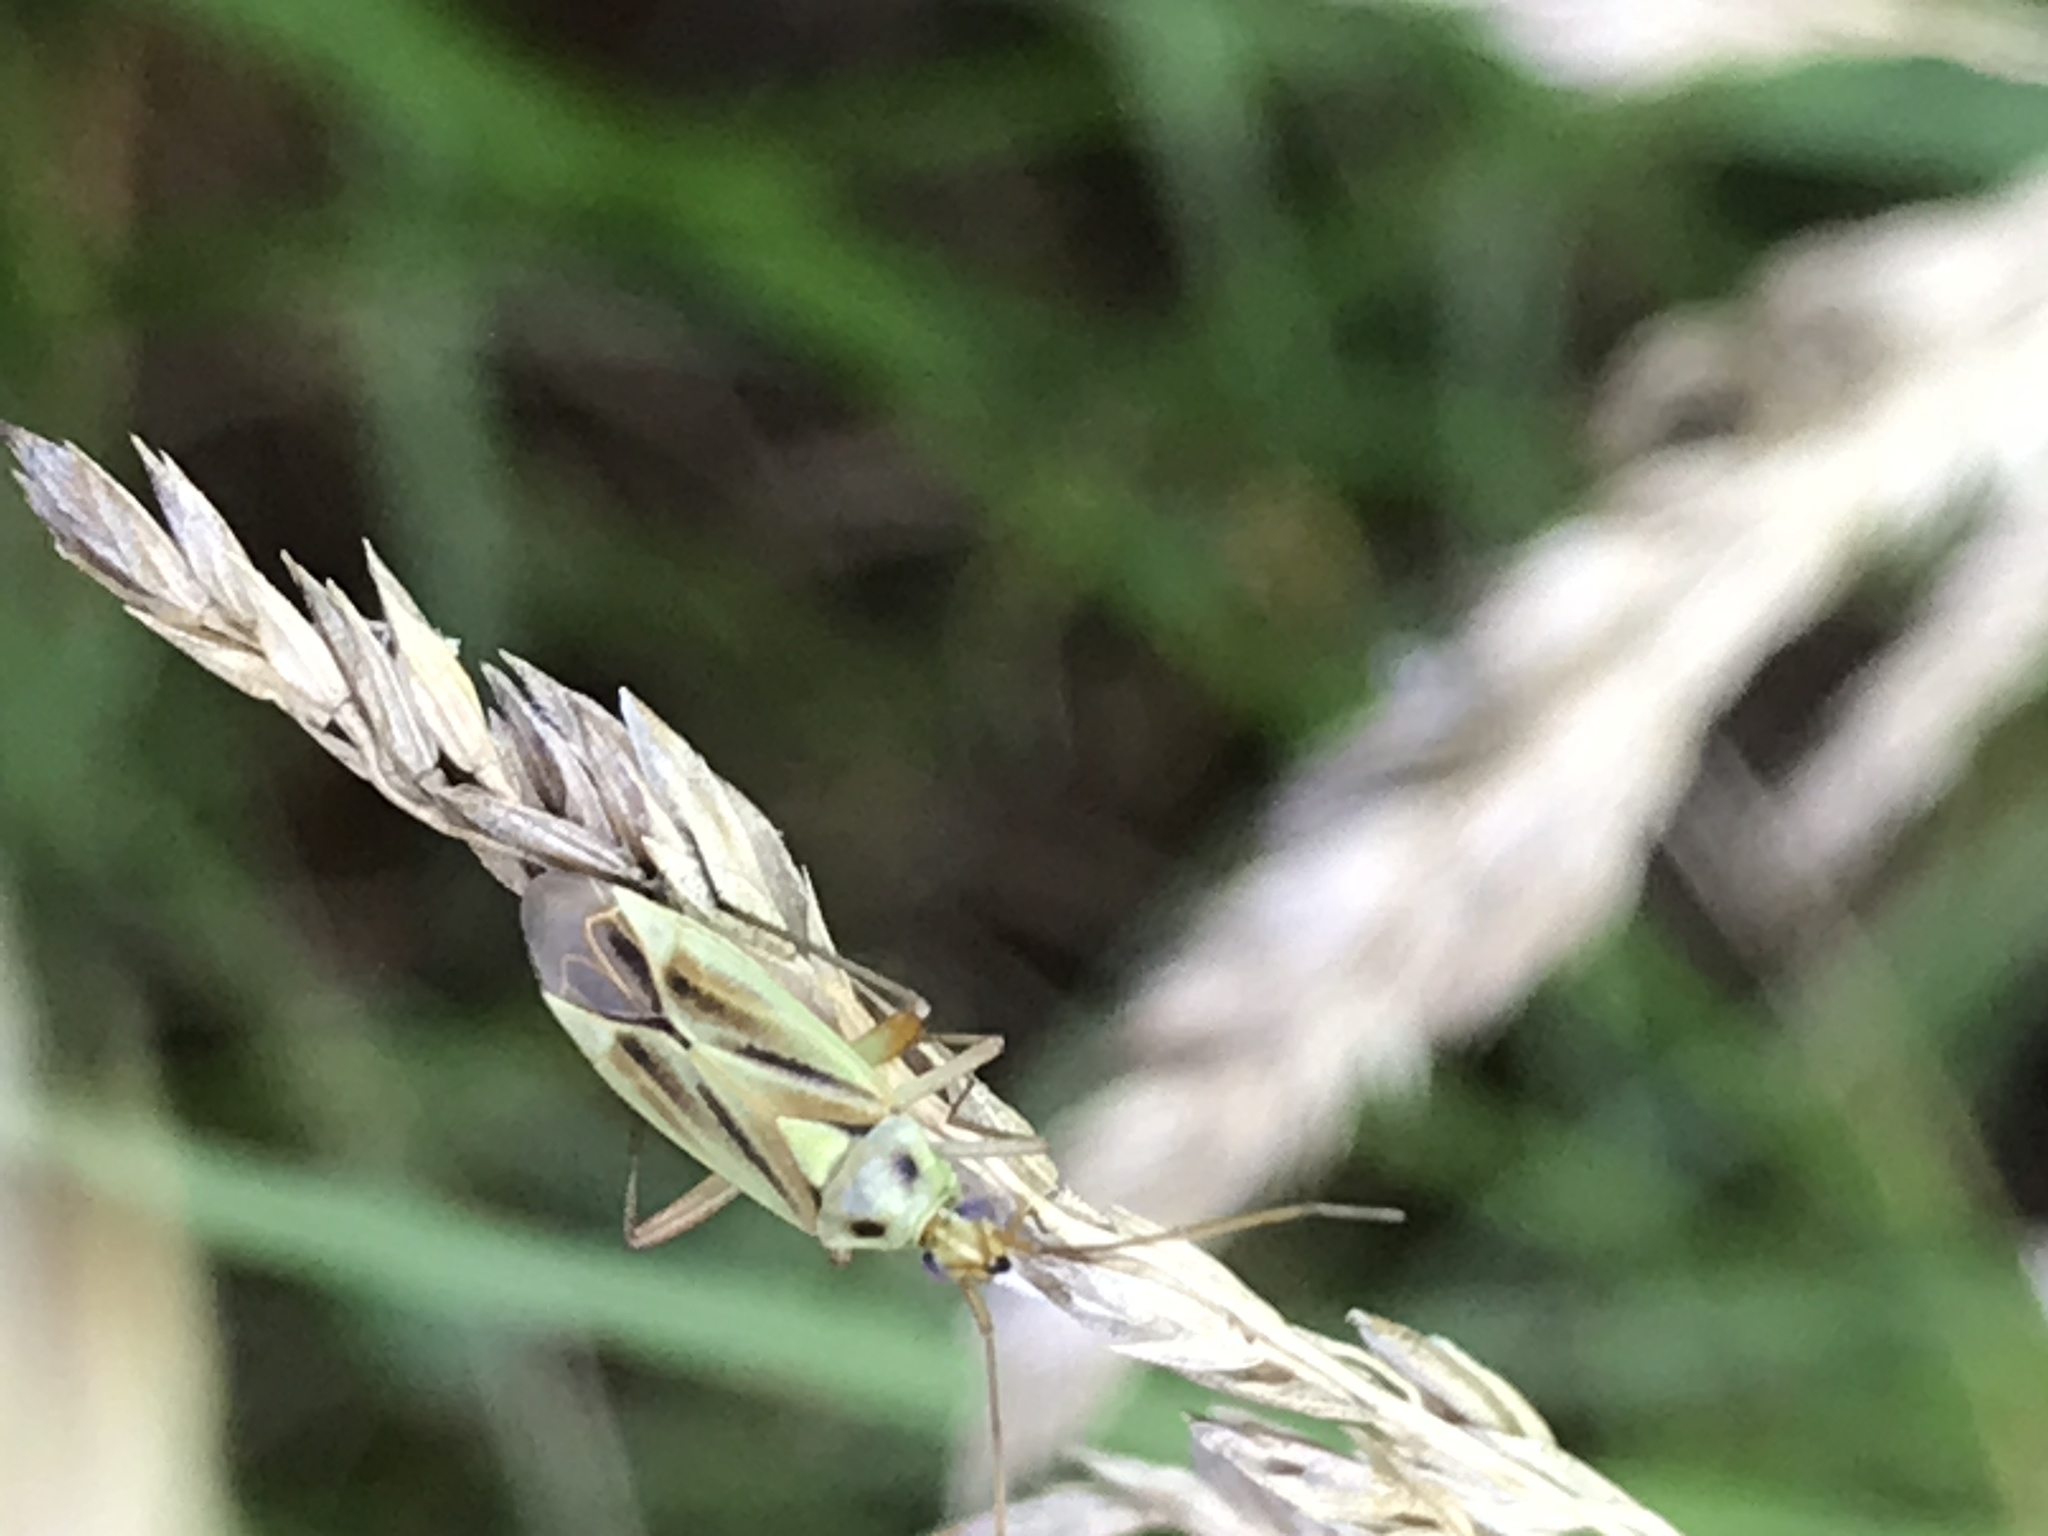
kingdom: Animalia
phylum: Arthropoda
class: Insecta
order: Hemiptera
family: Miridae
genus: Stenotus
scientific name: Stenotus binotatus
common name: Plant bug
